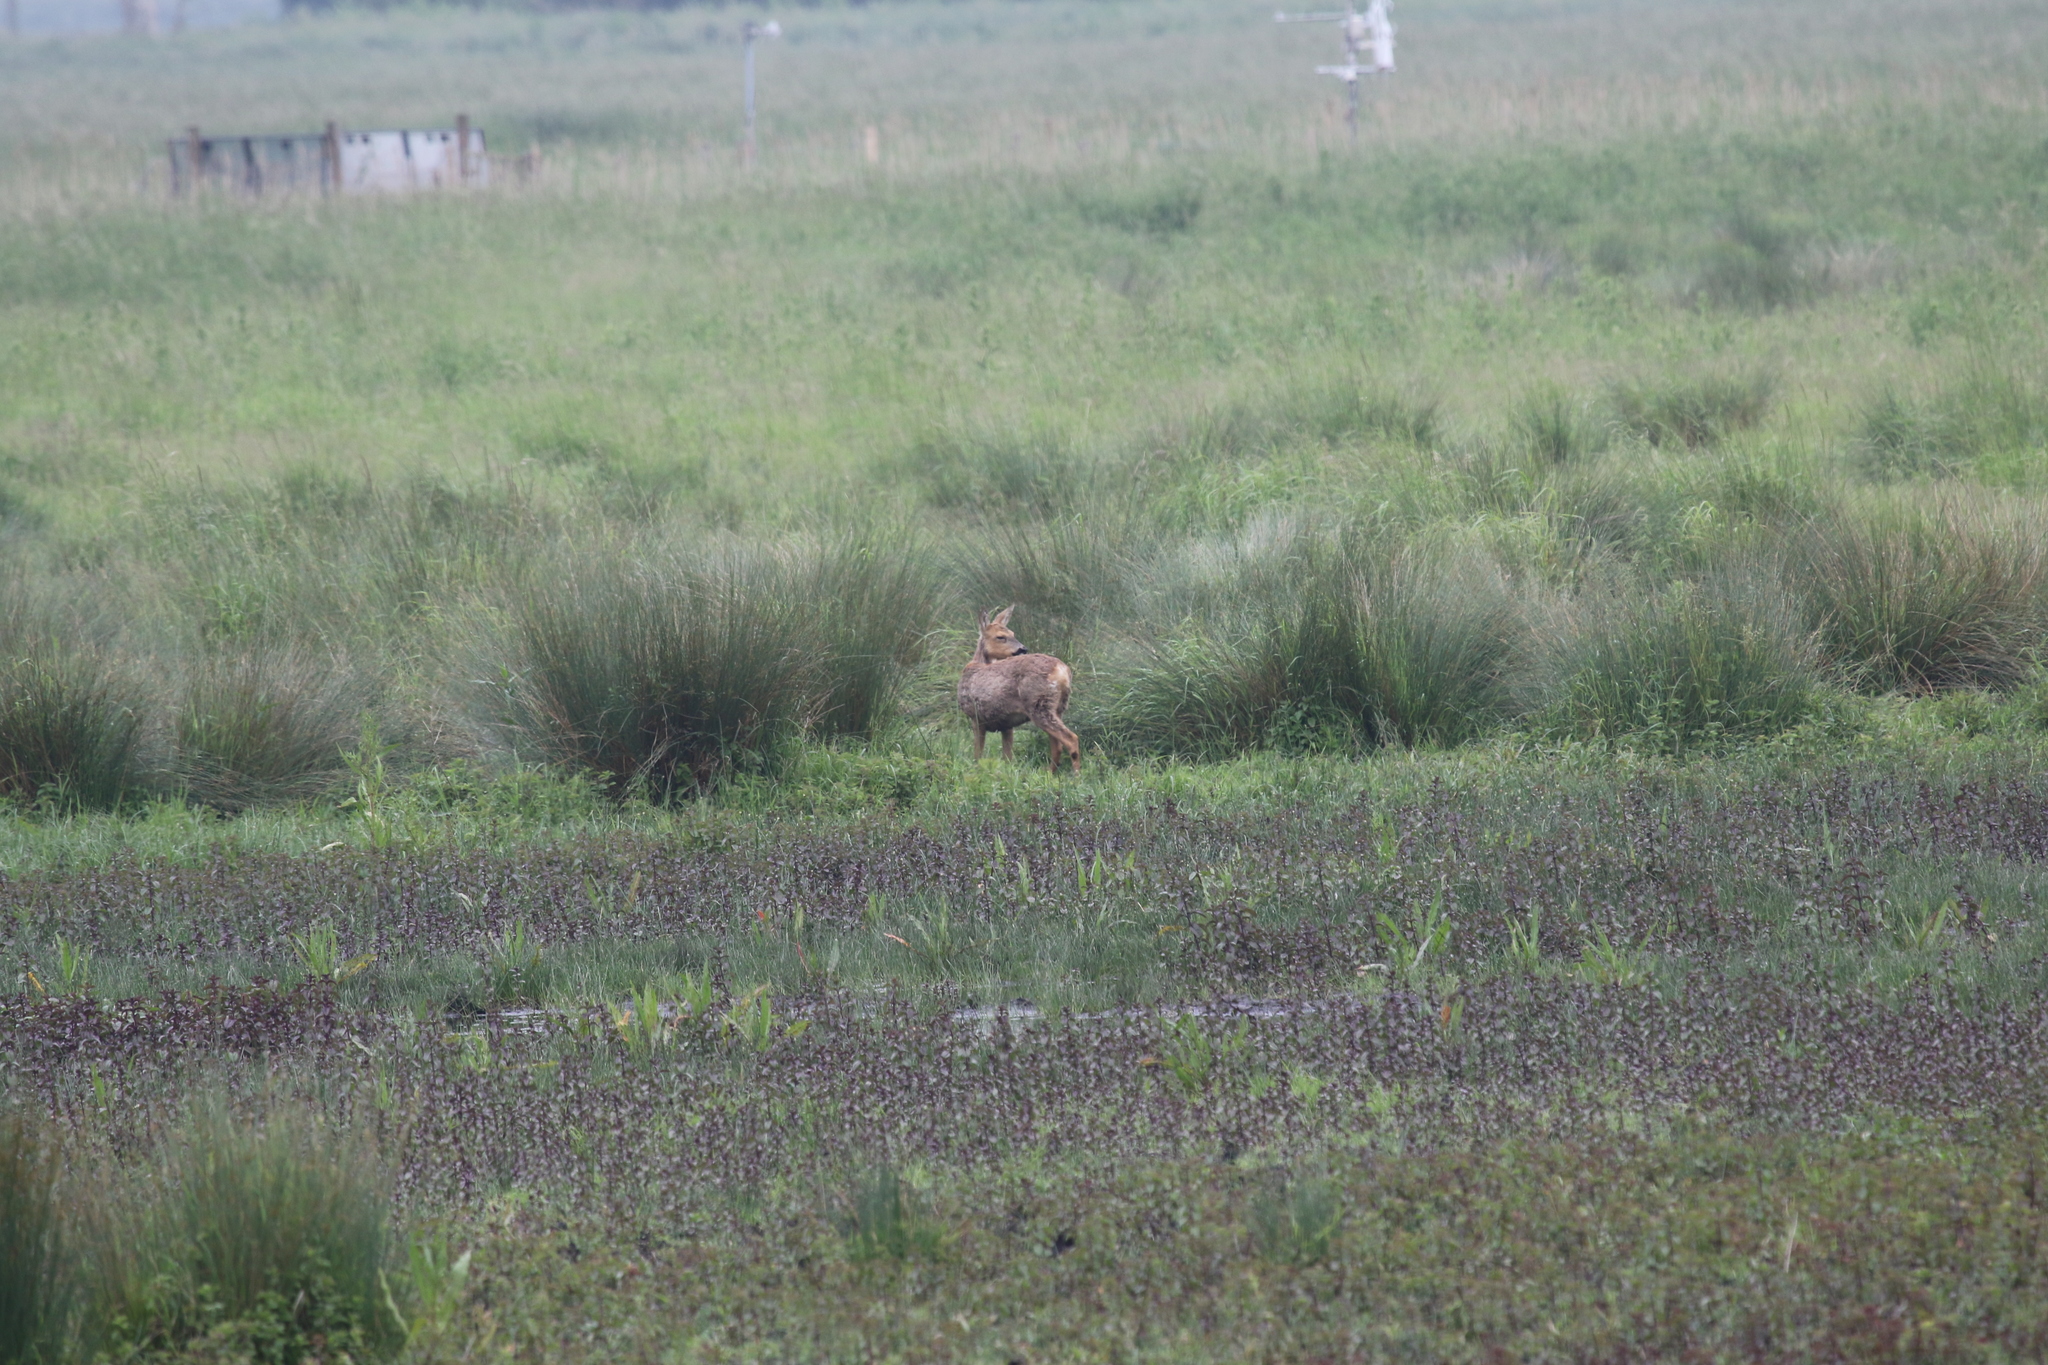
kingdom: Animalia
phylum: Chordata
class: Mammalia
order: Artiodactyla
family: Cervidae
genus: Capreolus
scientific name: Capreolus capreolus
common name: Western roe deer
